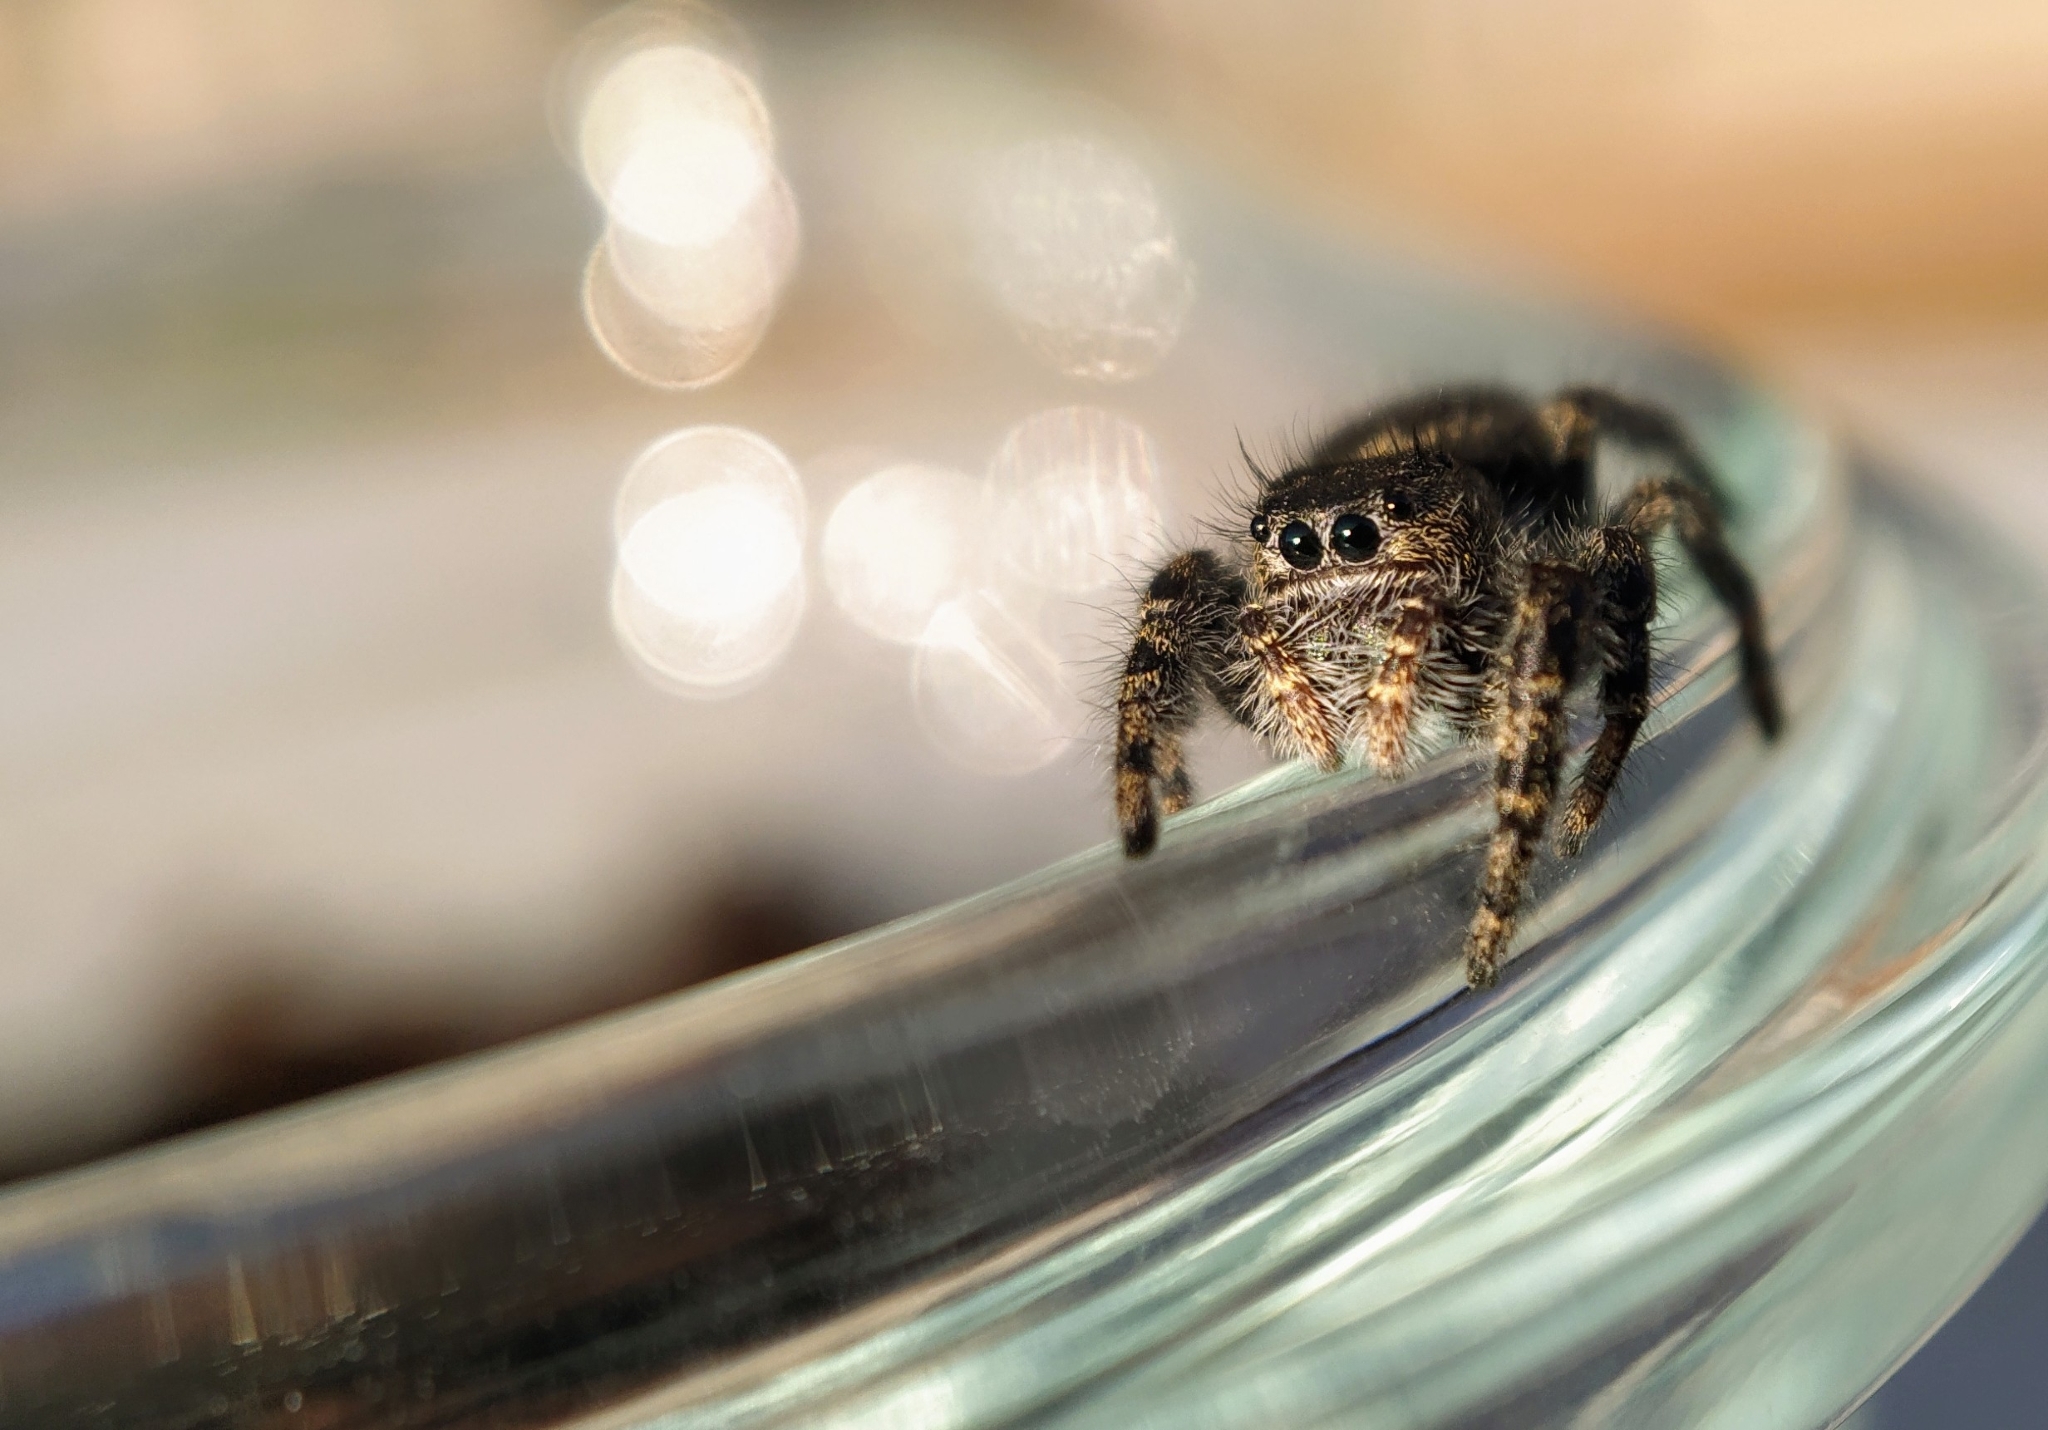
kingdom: Animalia
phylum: Arthropoda
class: Arachnida
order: Araneae
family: Salticidae
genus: Phidippus
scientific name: Phidippus borealis
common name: Boreal tufted jumping spider
